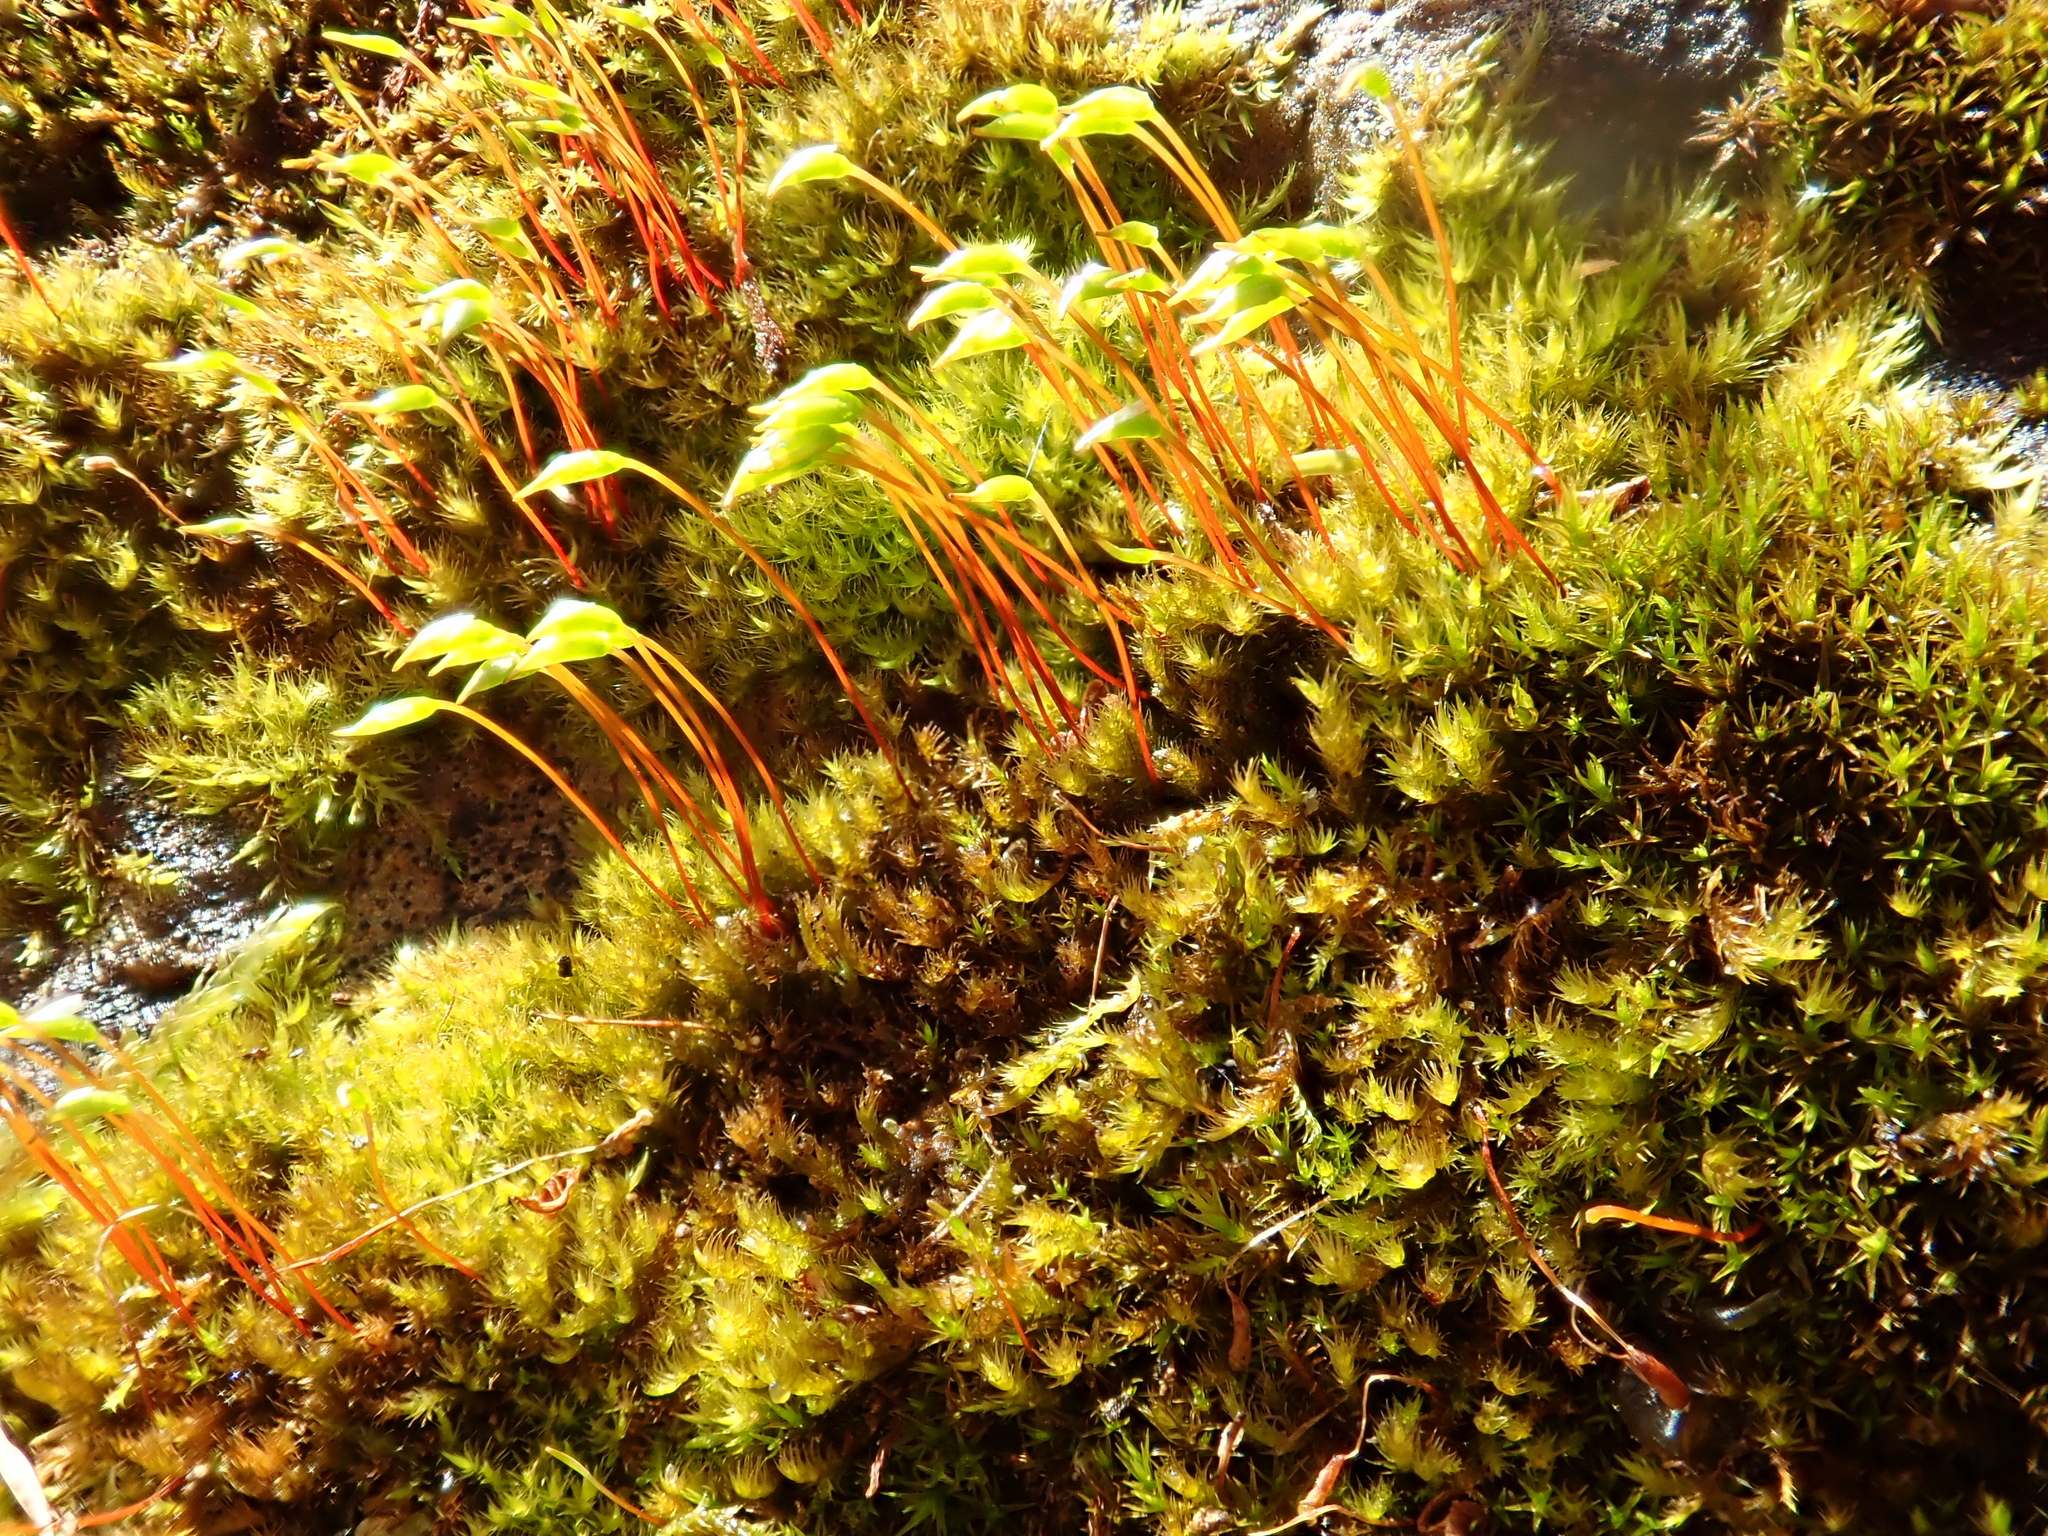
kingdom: Plantae
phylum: Bryophyta
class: Bryopsida
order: Hypnales
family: Pylaisiaceae
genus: Homomallium
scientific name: Homomallium incurvatum
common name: Incurved feather-moss
